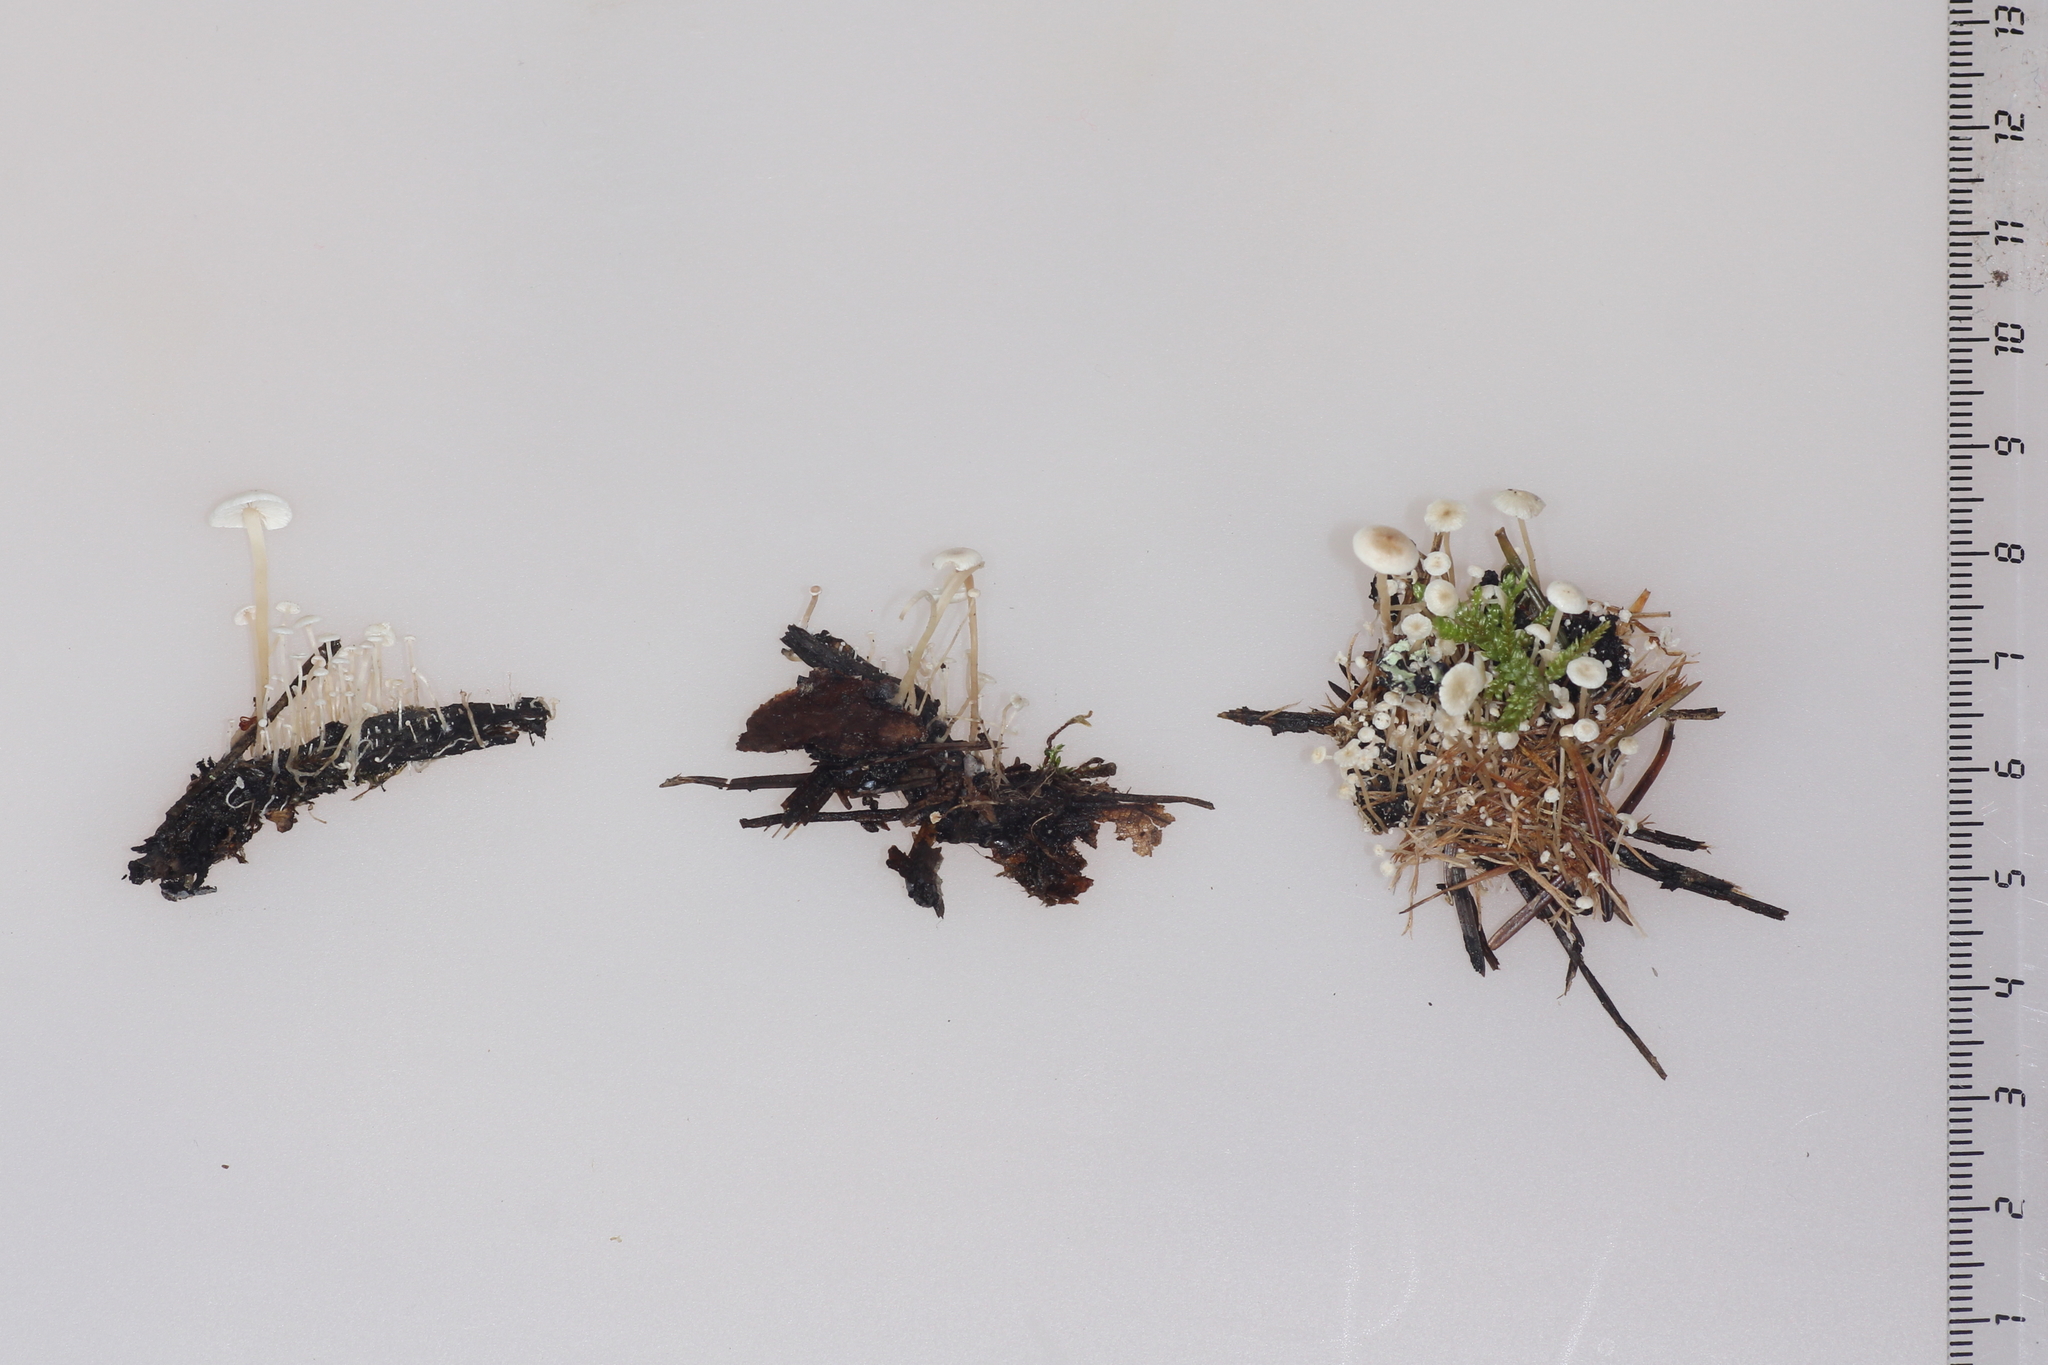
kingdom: Fungi
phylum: Basidiomycota
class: Agaricomycetes
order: Agaricales
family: Tricholomataceae
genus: Collybia
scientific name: Collybia cirrhata
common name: Piggyback shanklet
